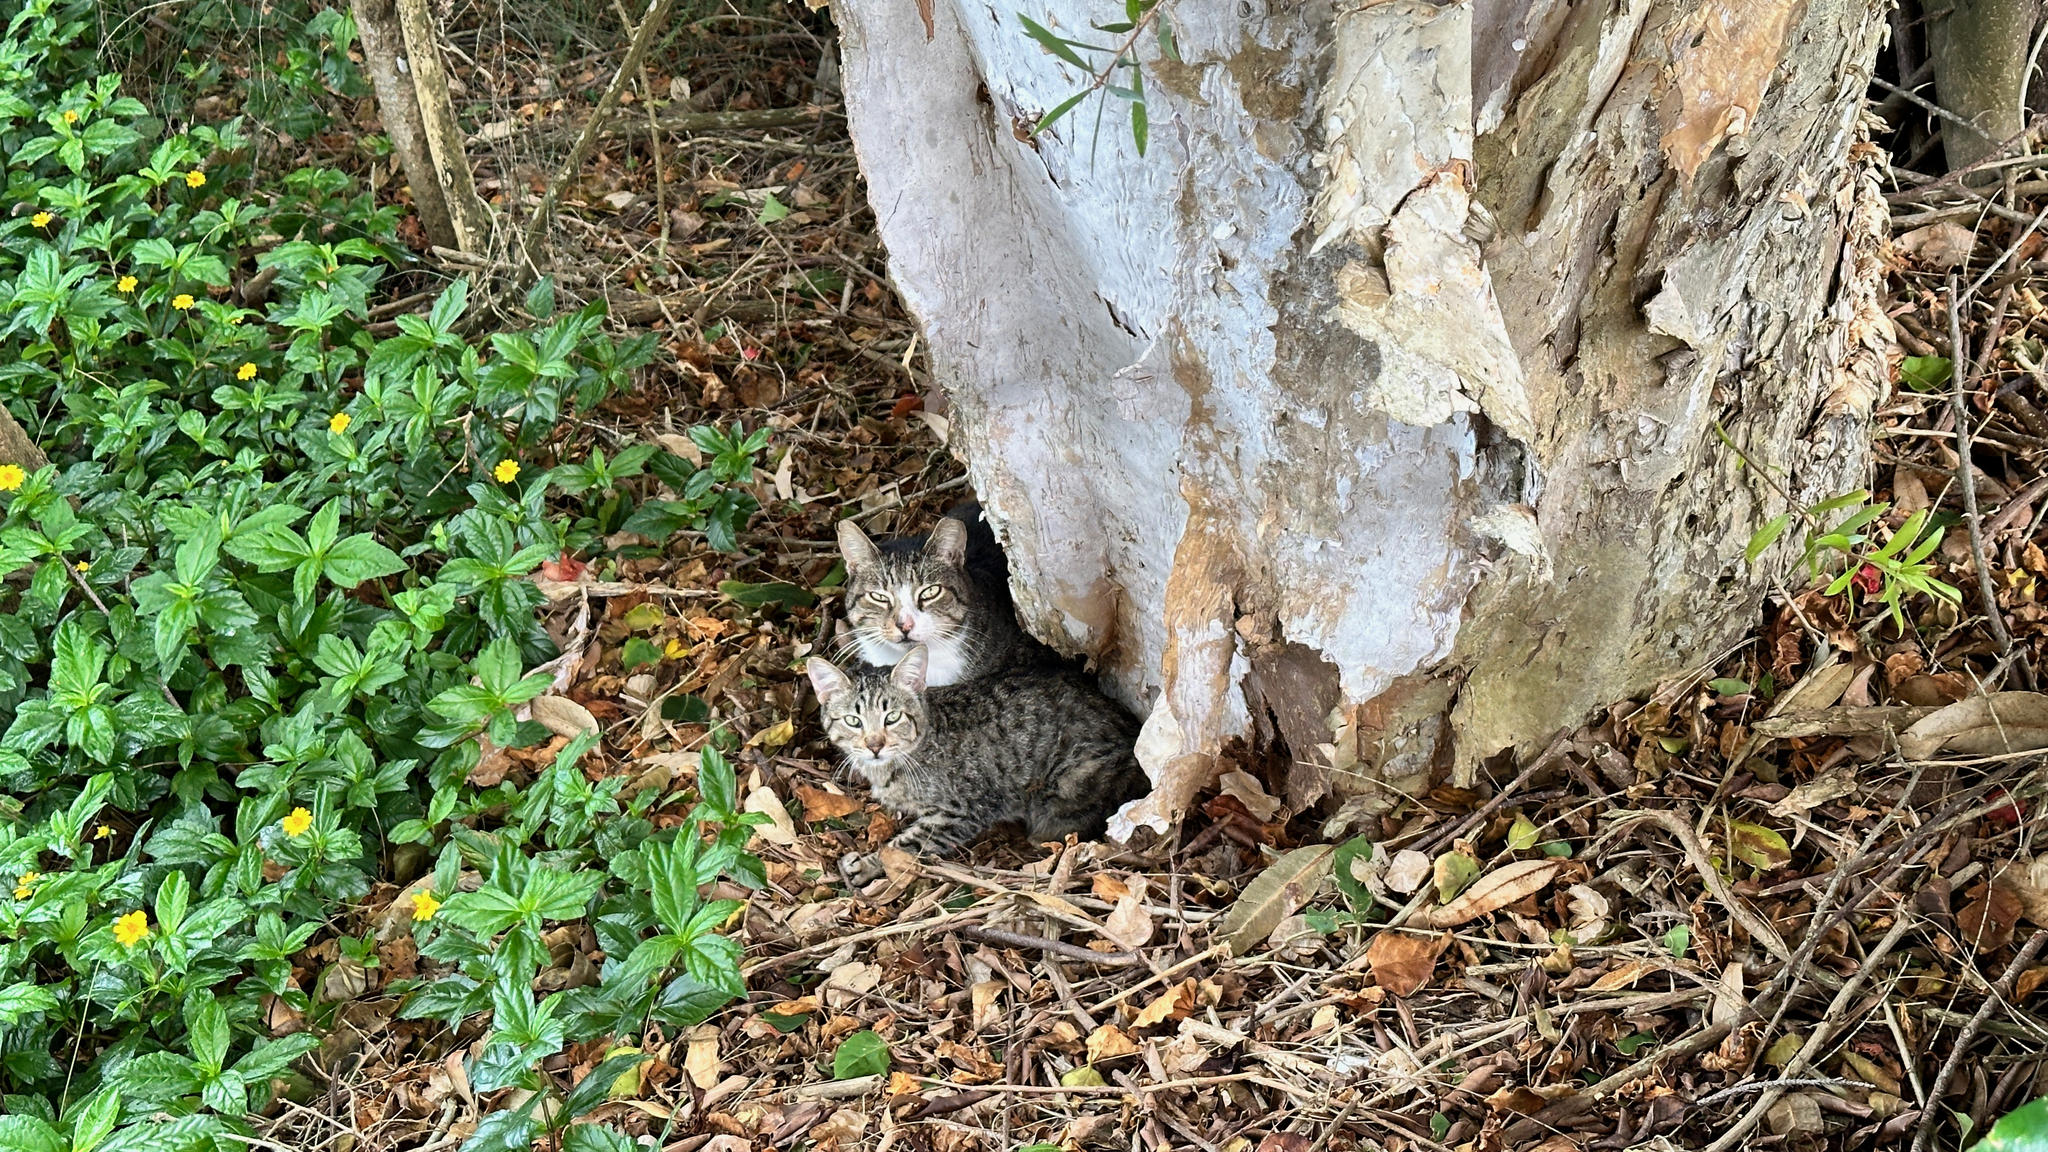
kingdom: Animalia
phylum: Chordata
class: Mammalia
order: Carnivora
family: Felidae
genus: Felis
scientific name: Felis catus
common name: Domestic cat
